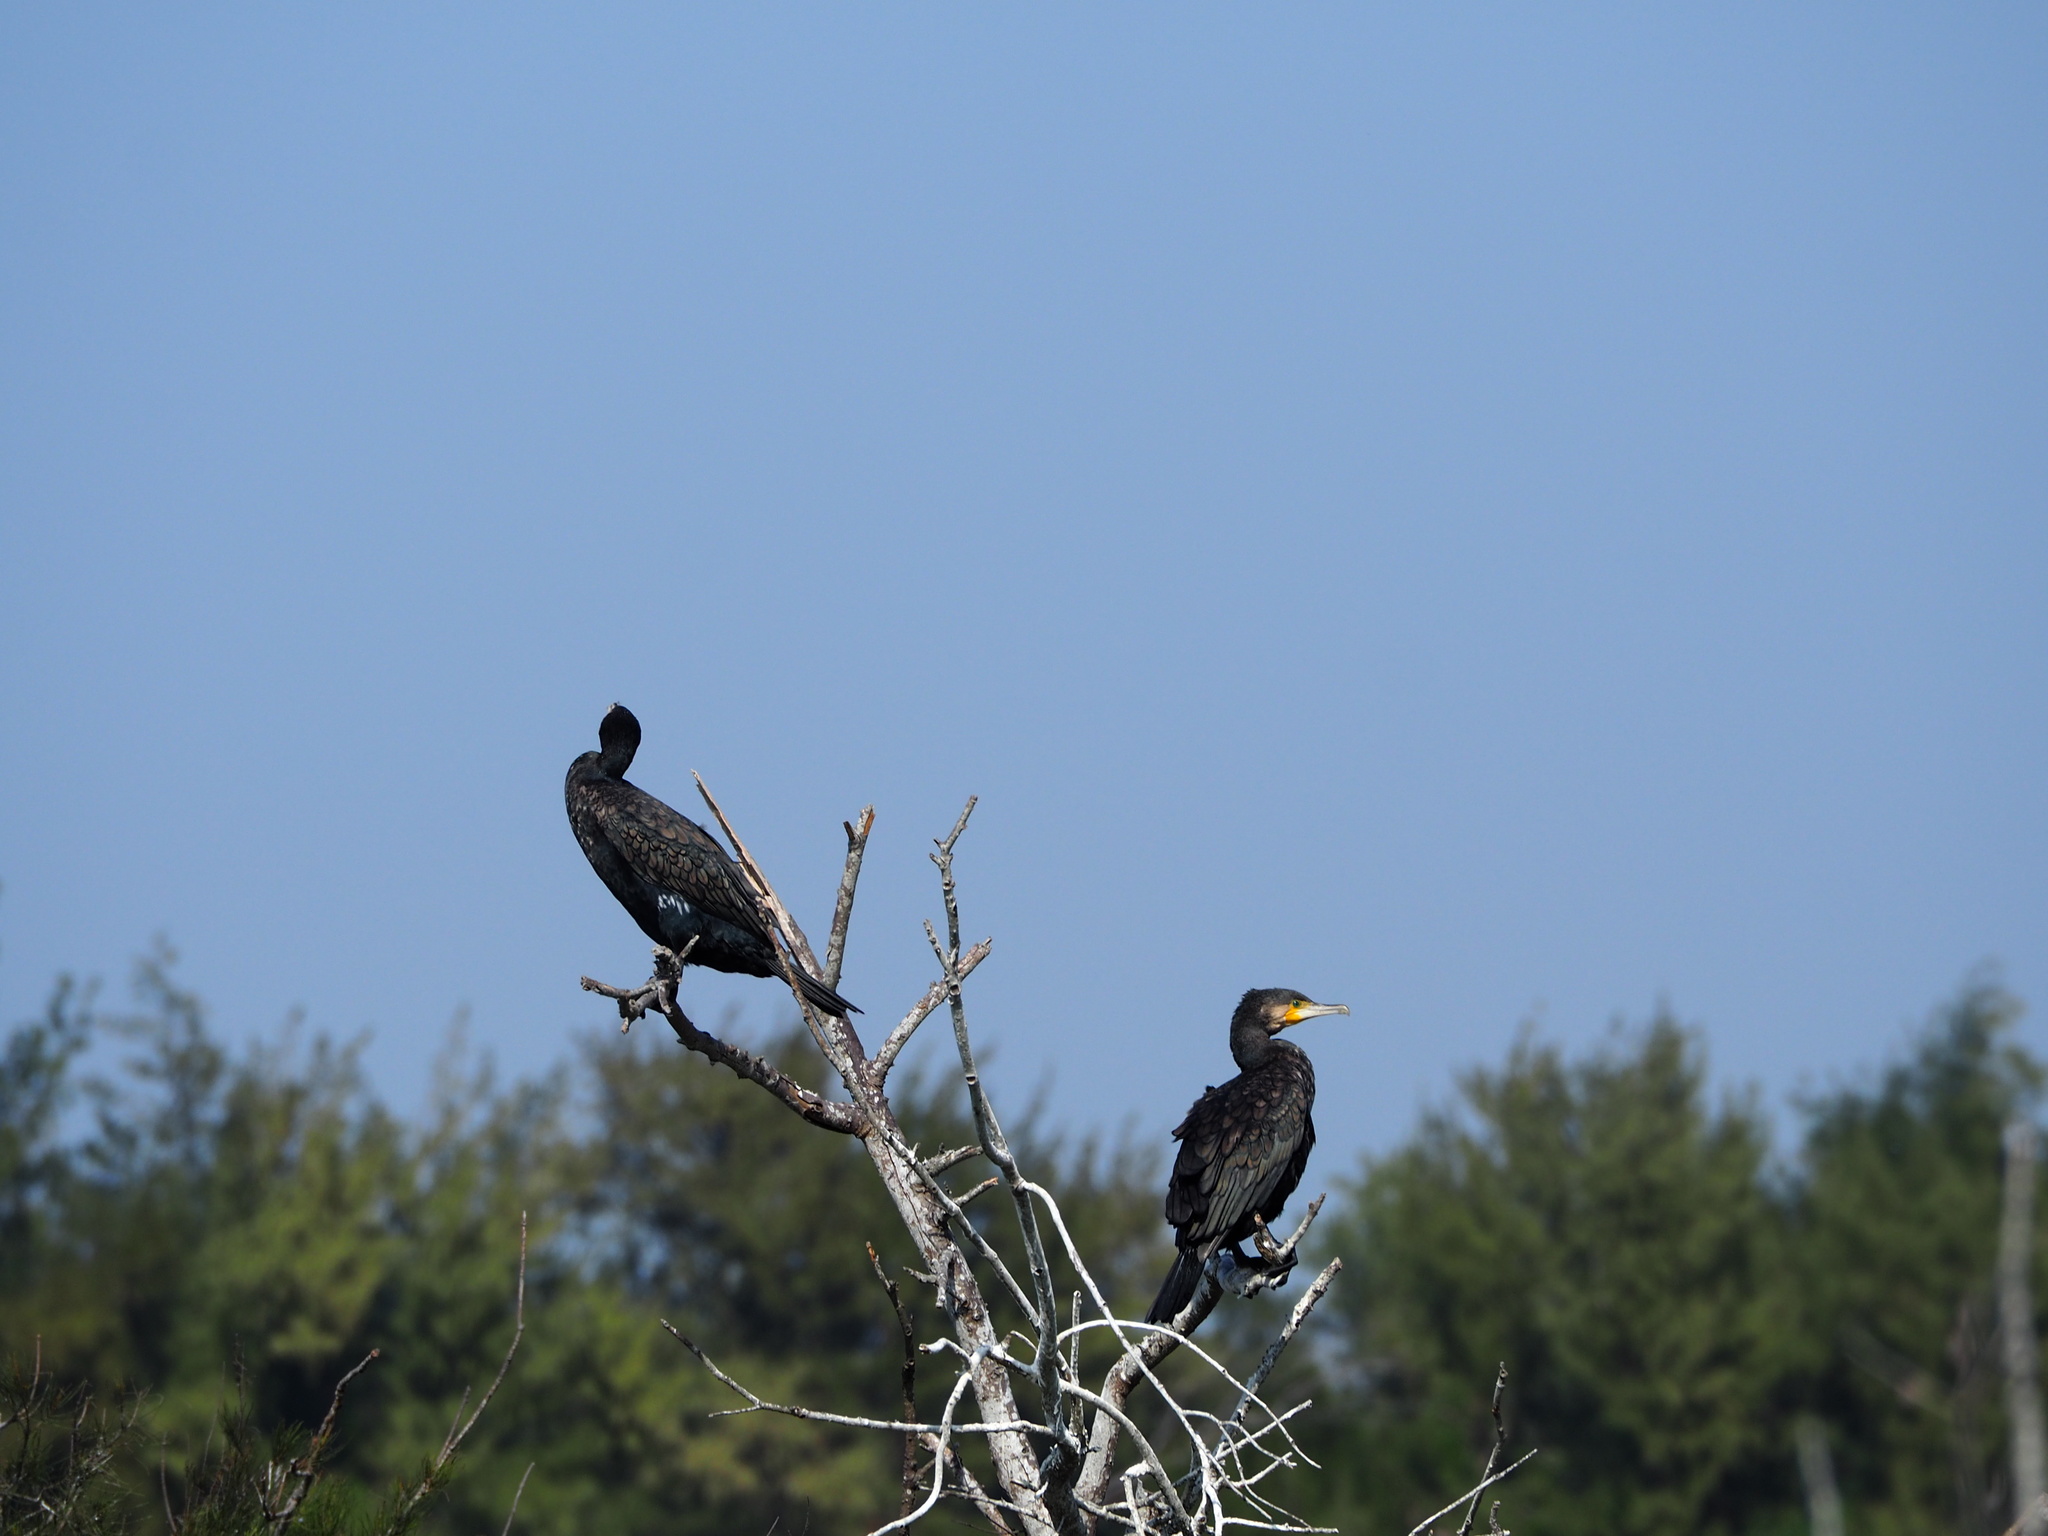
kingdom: Animalia
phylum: Chordata
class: Aves
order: Suliformes
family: Phalacrocoracidae
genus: Phalacrocorax
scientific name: Phalacrocorax carbo
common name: Great cormorant
